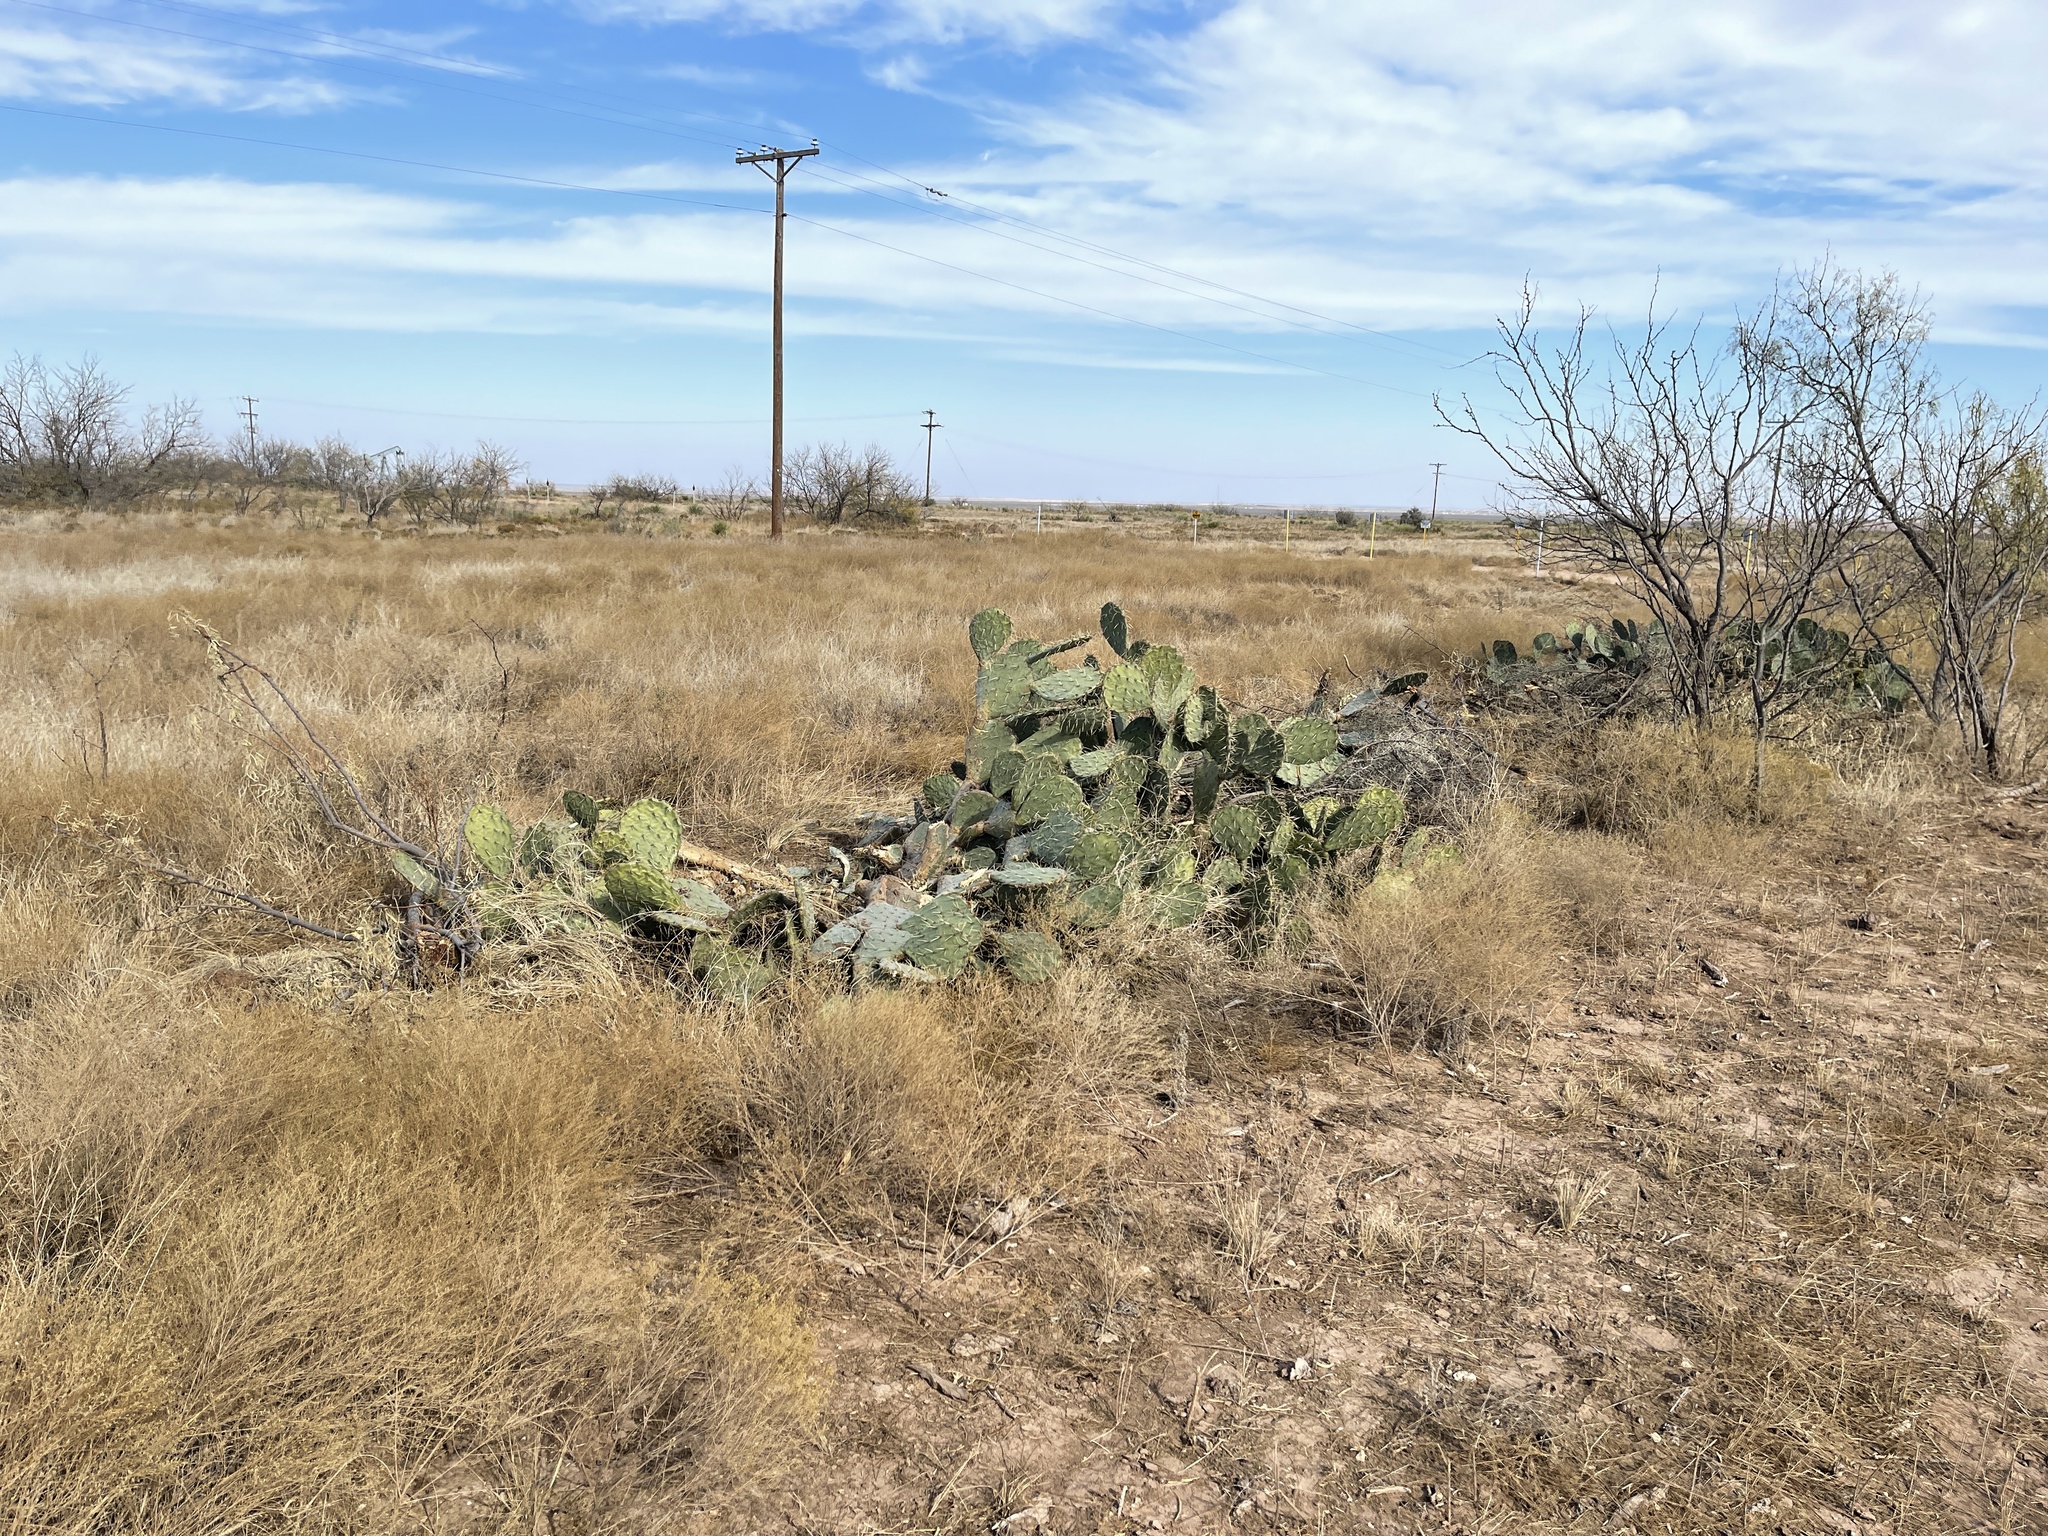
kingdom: Plantae
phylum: Tracheophyta
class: Magnoliopsida
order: Caryophyllales
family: Cactaceae
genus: Opuntia
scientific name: Opuntia engelmannii
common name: Cactus-apple
